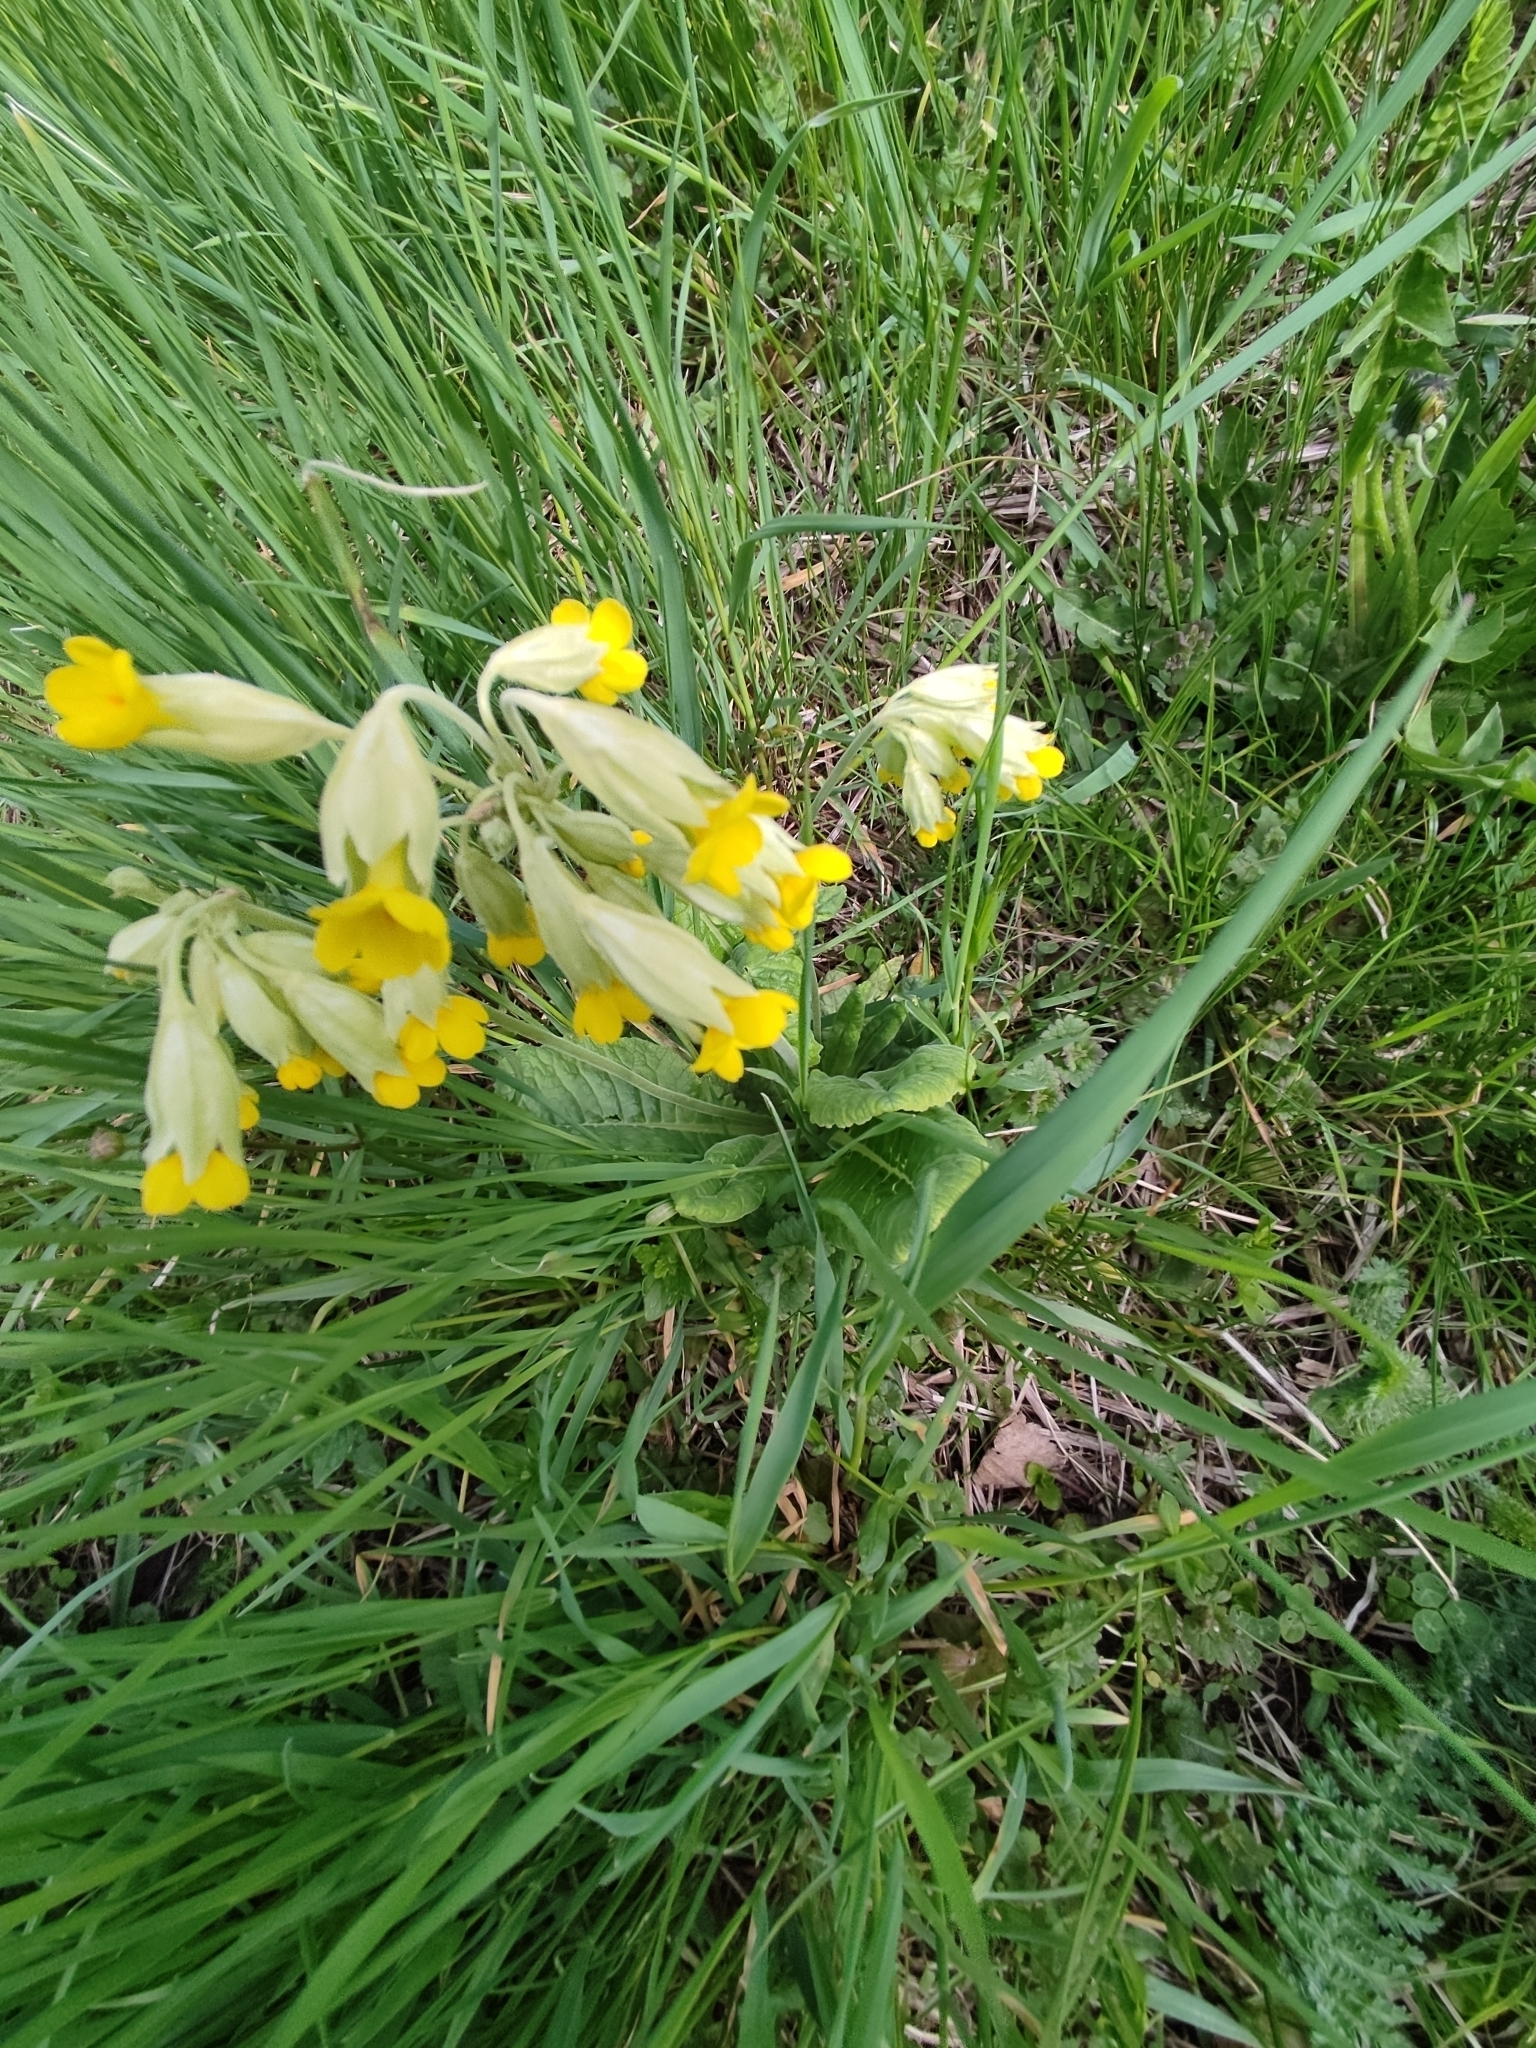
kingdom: Plantae
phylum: Tracheophyta
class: Magnoliopsida
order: Ericales
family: Primulaceae
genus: Primula
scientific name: Primula veris
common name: Cowslip
